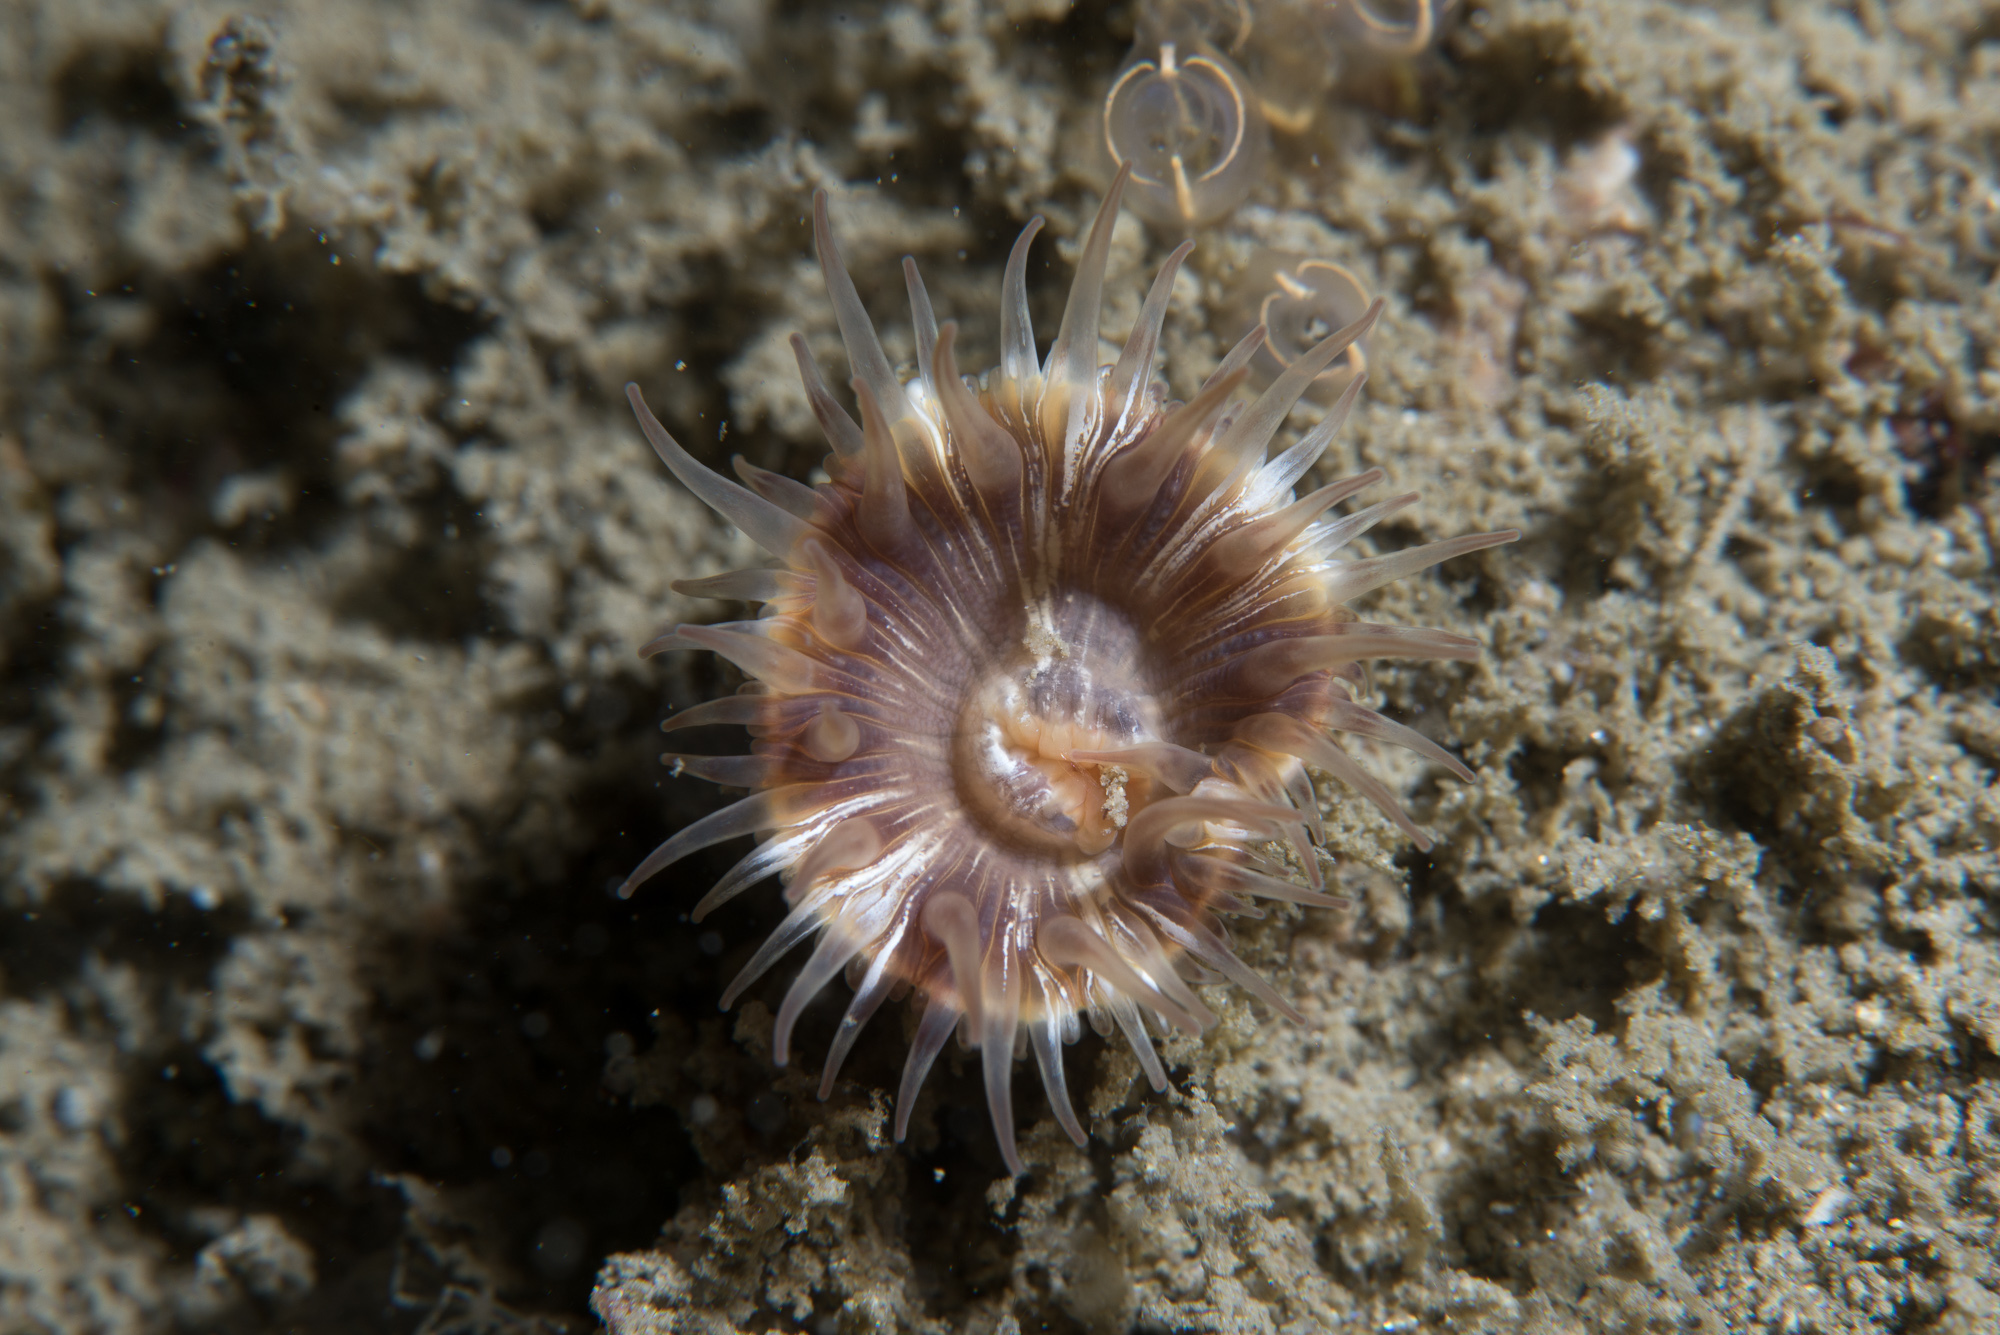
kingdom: Animalia
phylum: Cnidaria
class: Anthozoa
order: Actiniaria
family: Hormathiidae
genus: Hormathia
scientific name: Hormathia coronata
